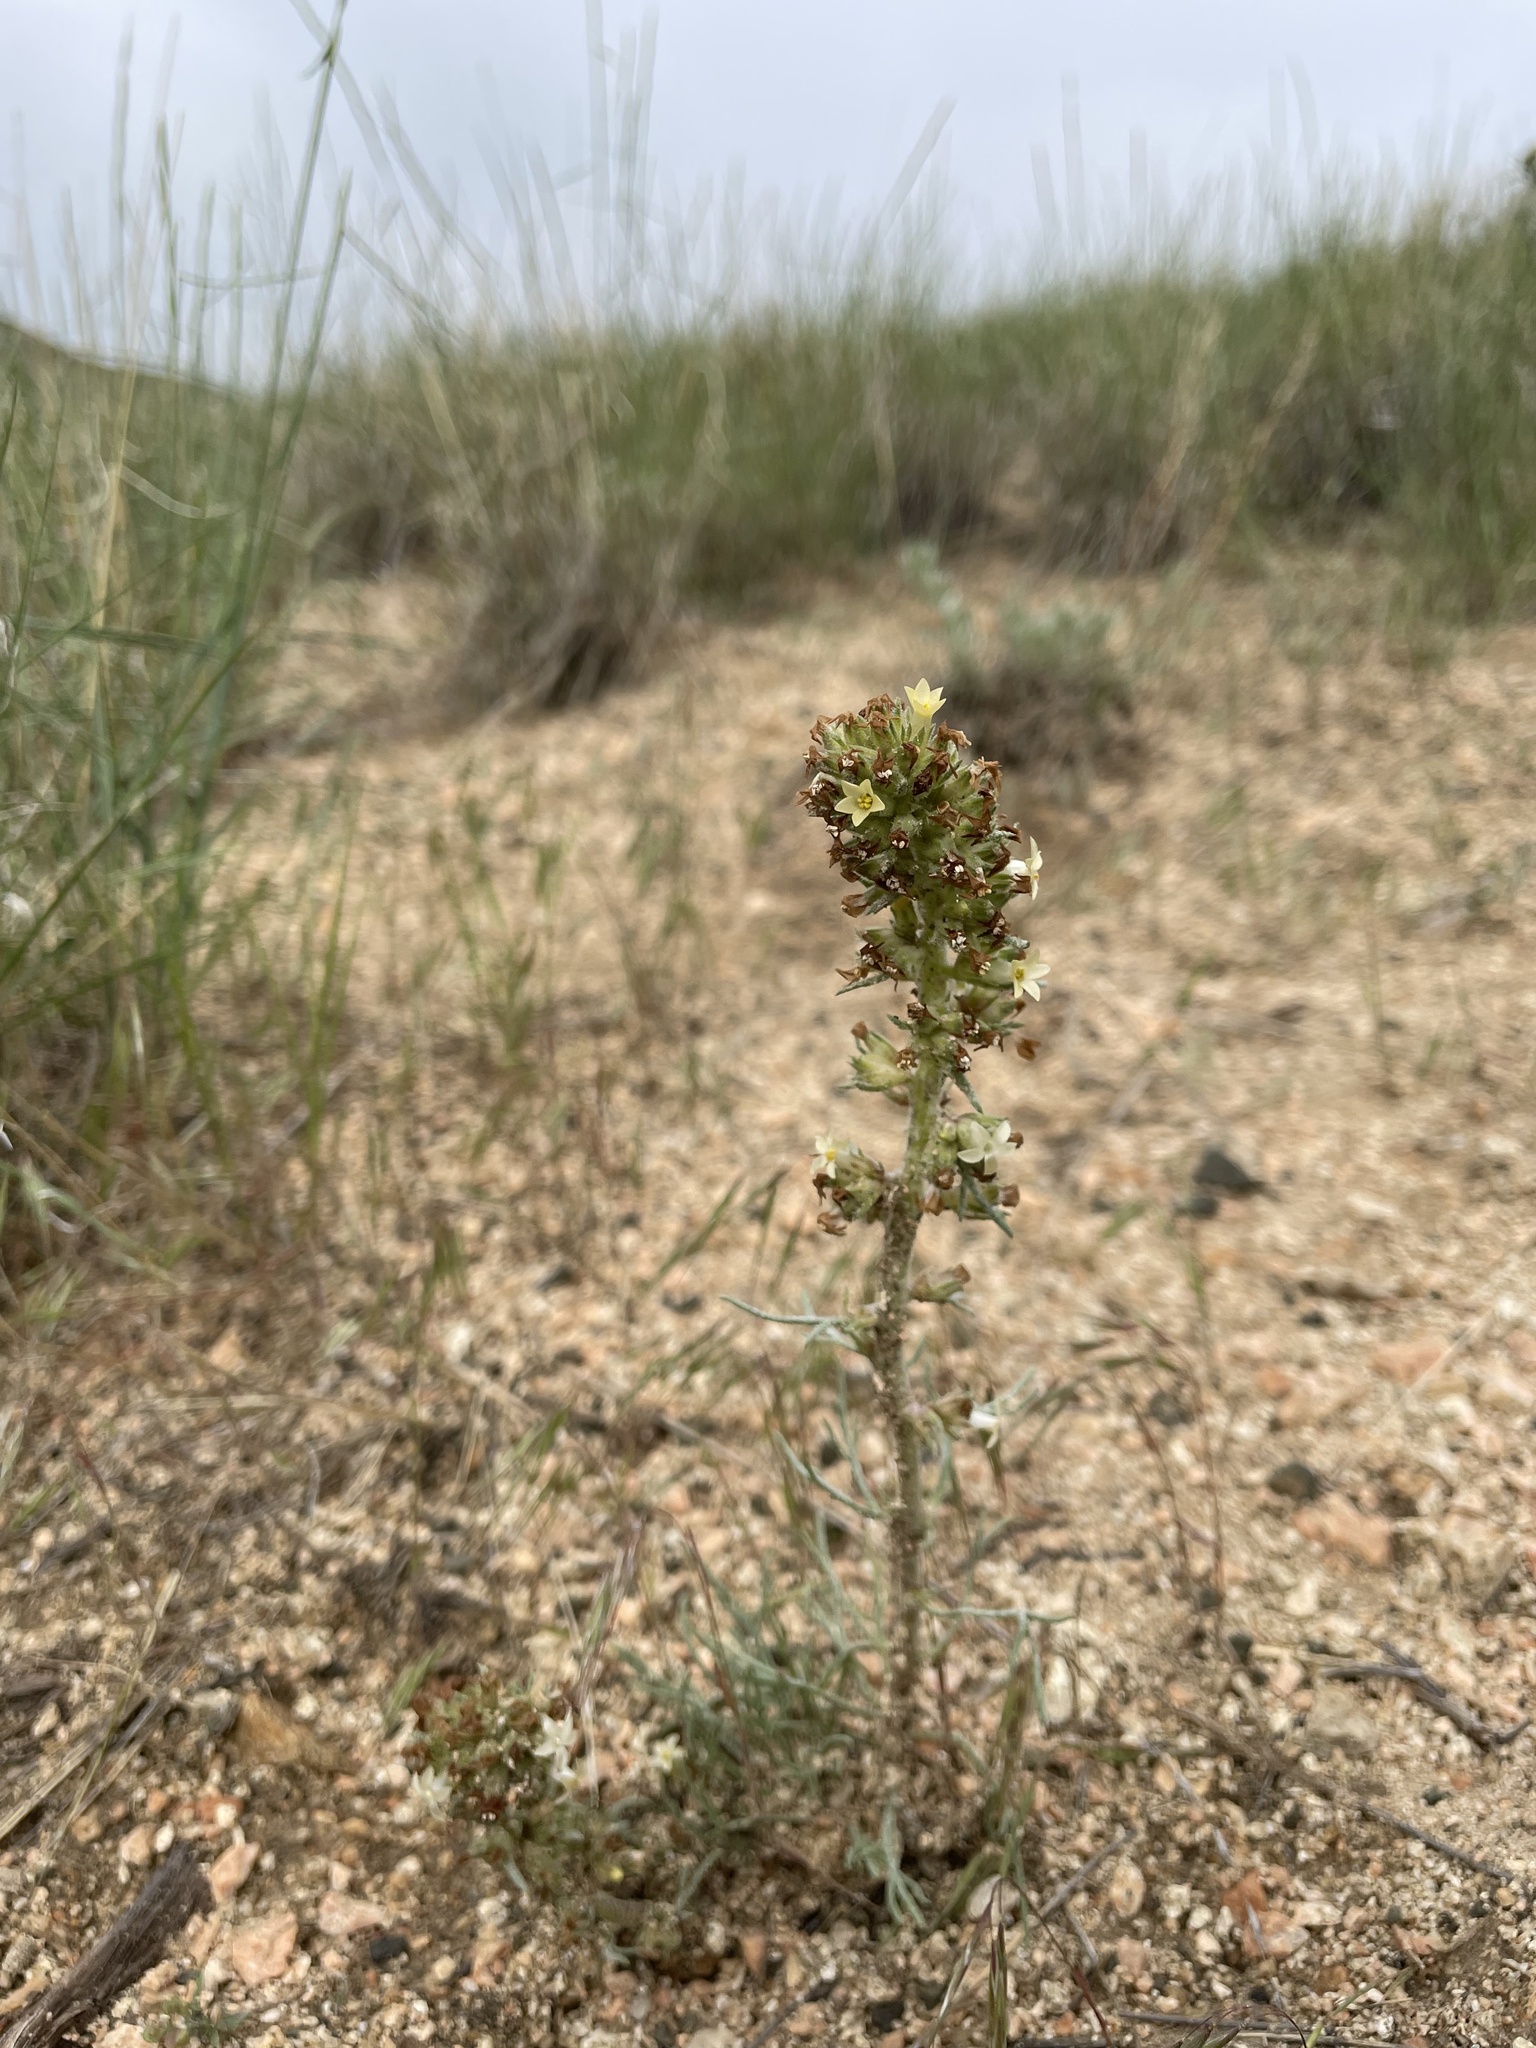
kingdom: Plantae
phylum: Tracheophyta
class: Magnoliopsida
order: Ericales
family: Polemoniaceae
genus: Ipomopsis
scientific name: Ipomopsis spicata
